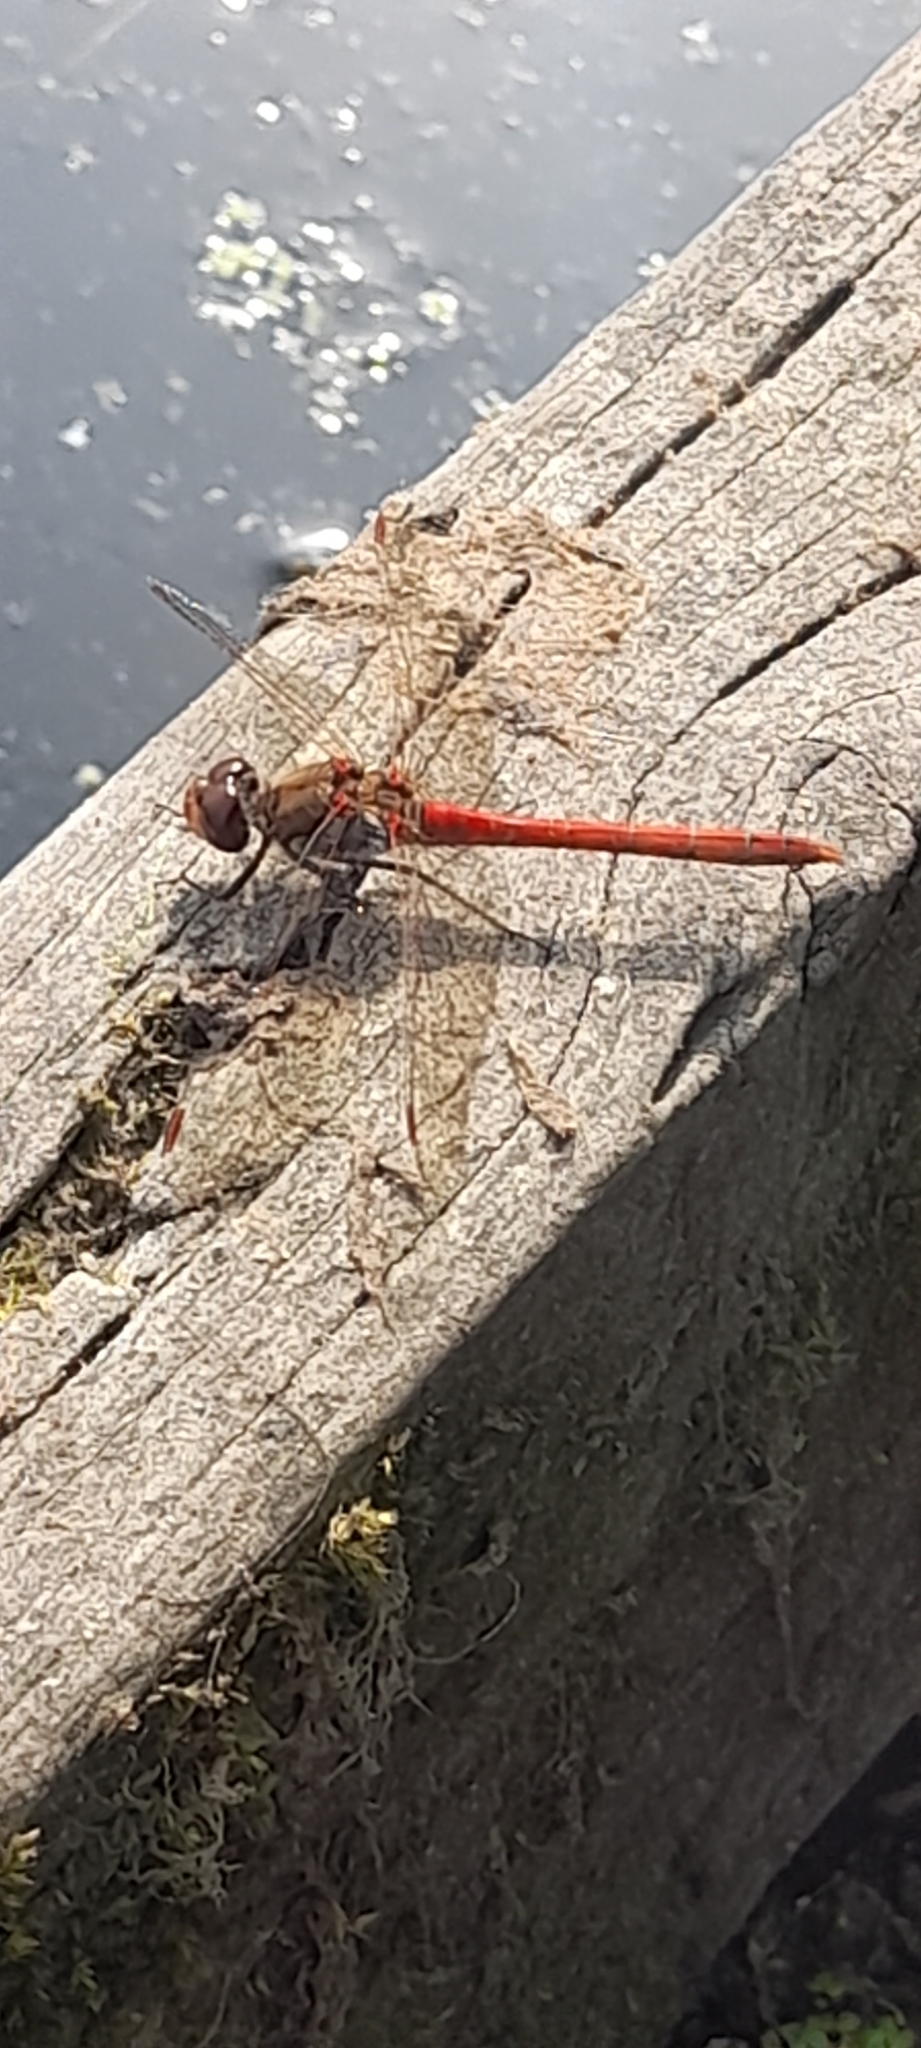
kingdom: Animalia
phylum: Arthropoda
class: Insecta
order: Odonata
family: Libellulidae
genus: Sympetrum
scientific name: Sympetrum striolatum
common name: Common darter
